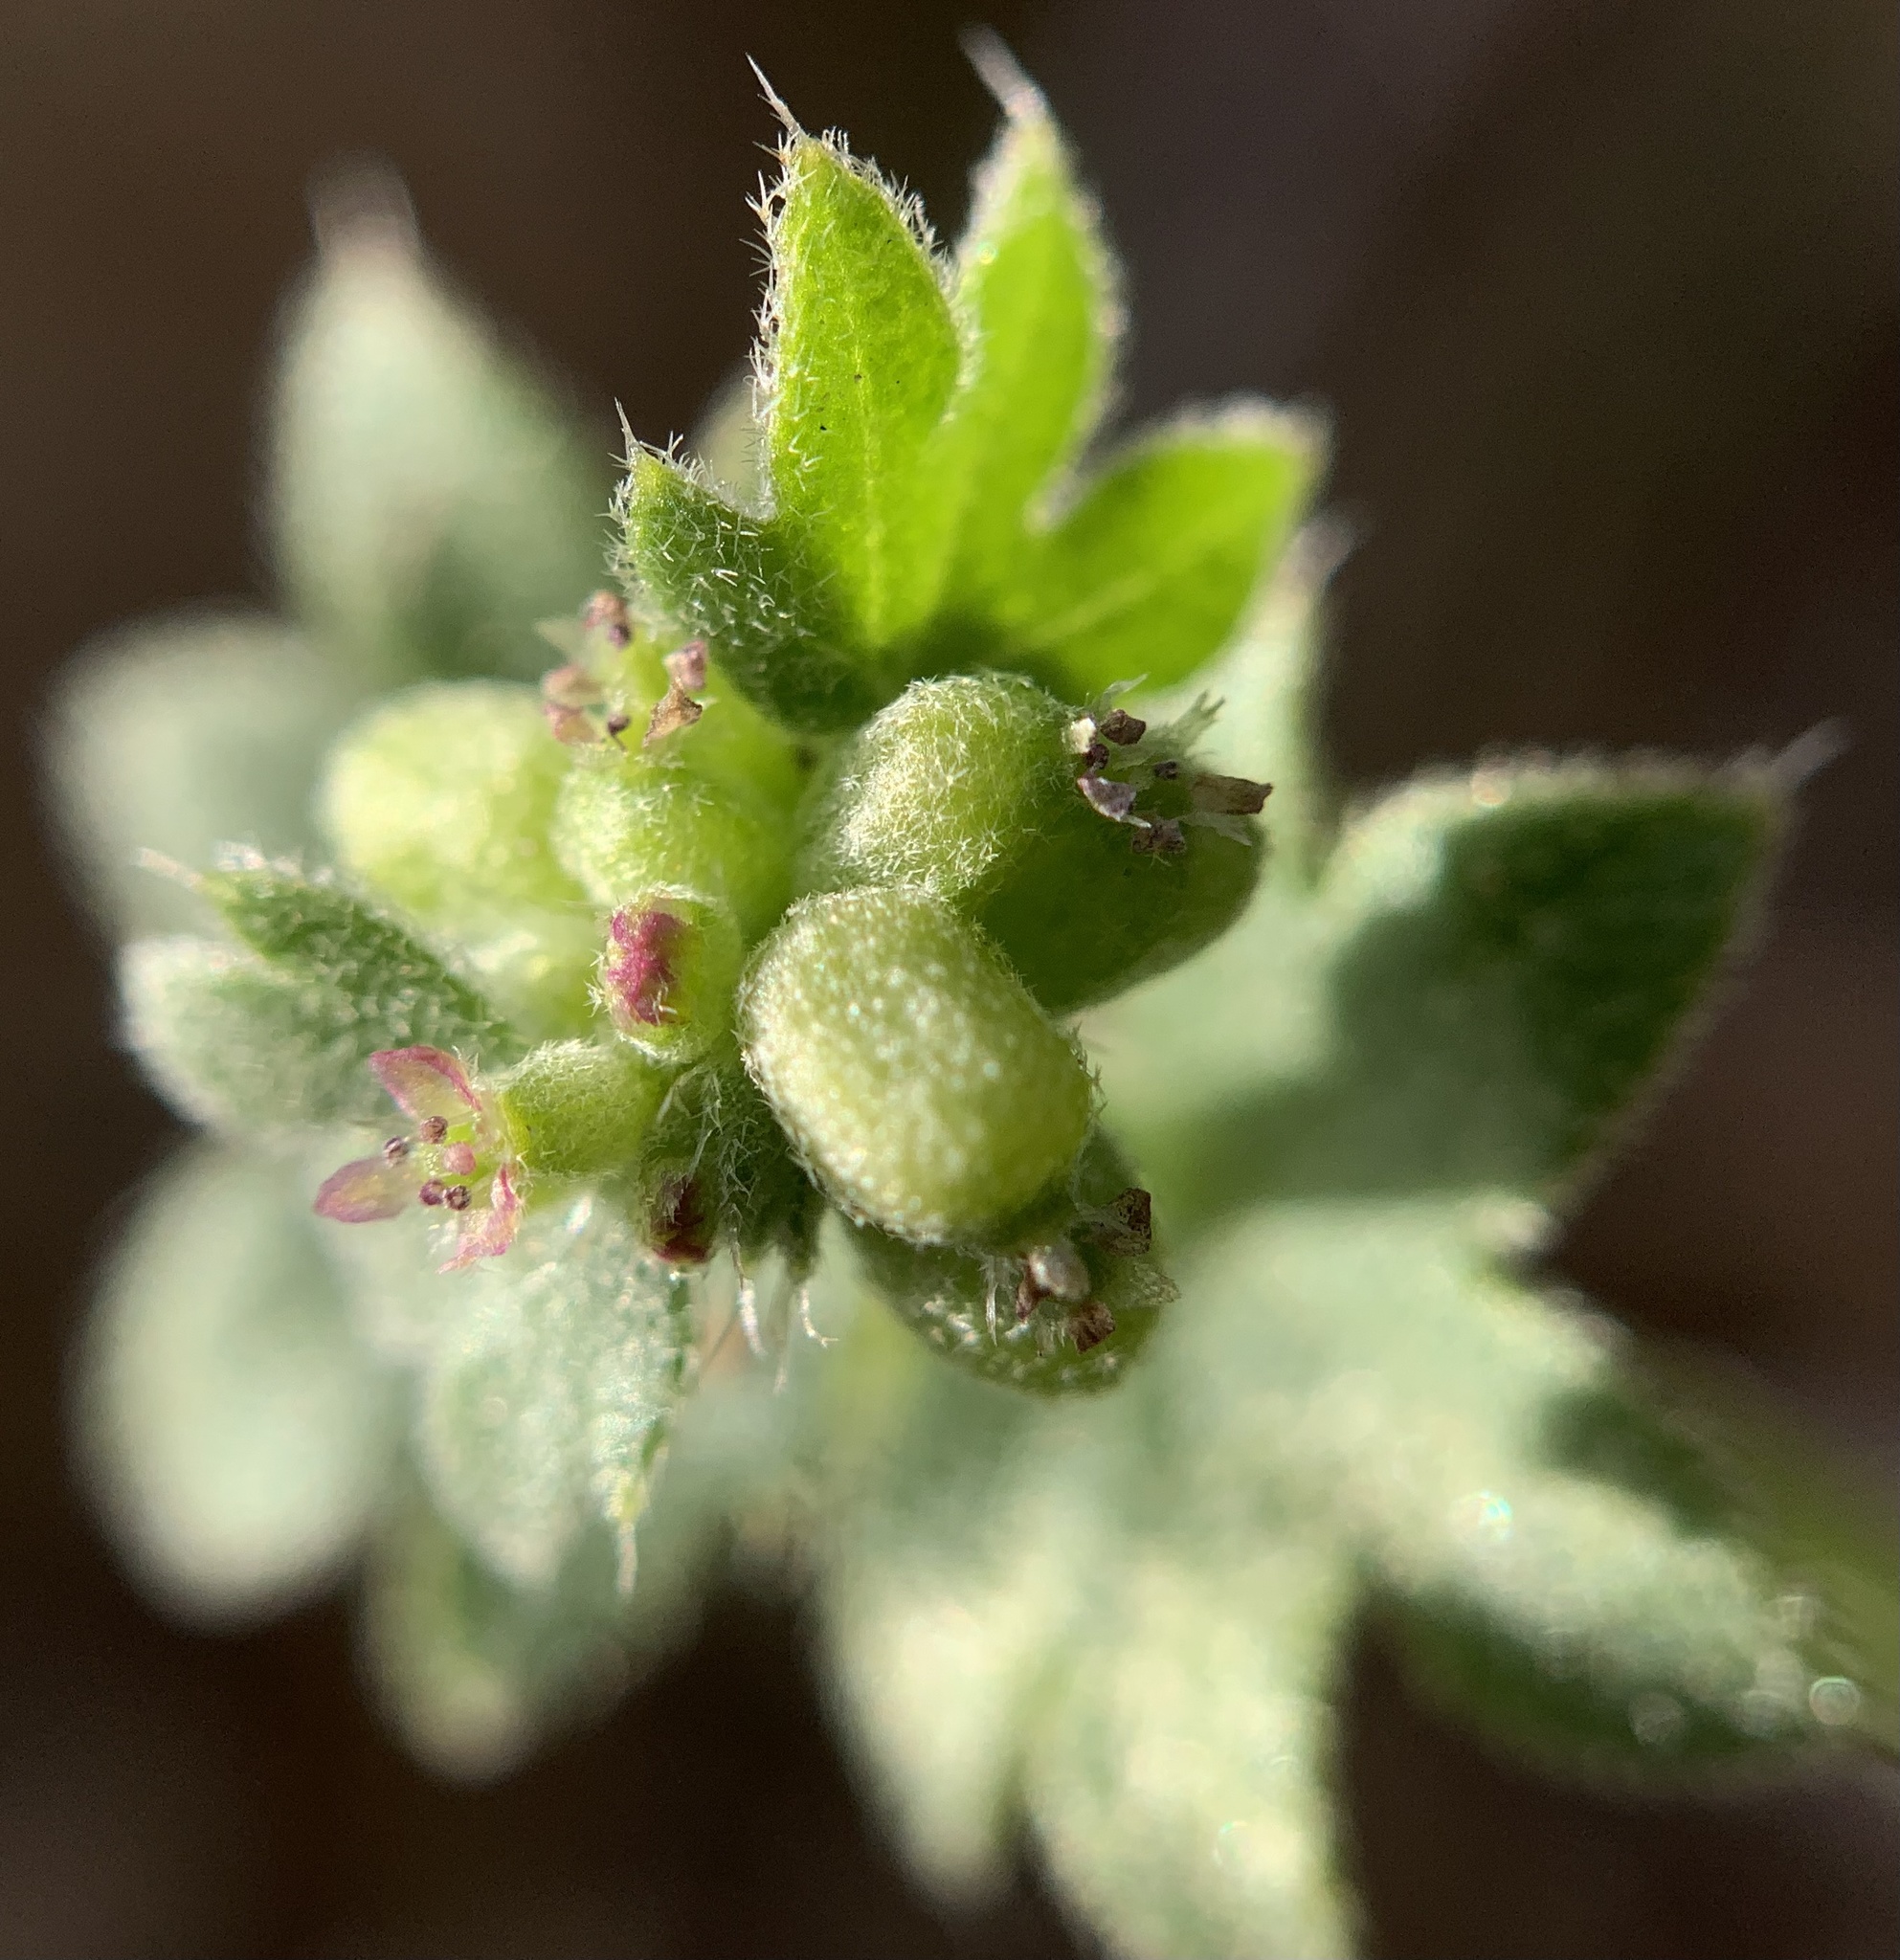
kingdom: Plantae
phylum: Tracheophyta
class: Magnoliopsida
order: Apiales
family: Apiaceae
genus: Bowlesia
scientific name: Bowlesia incana
